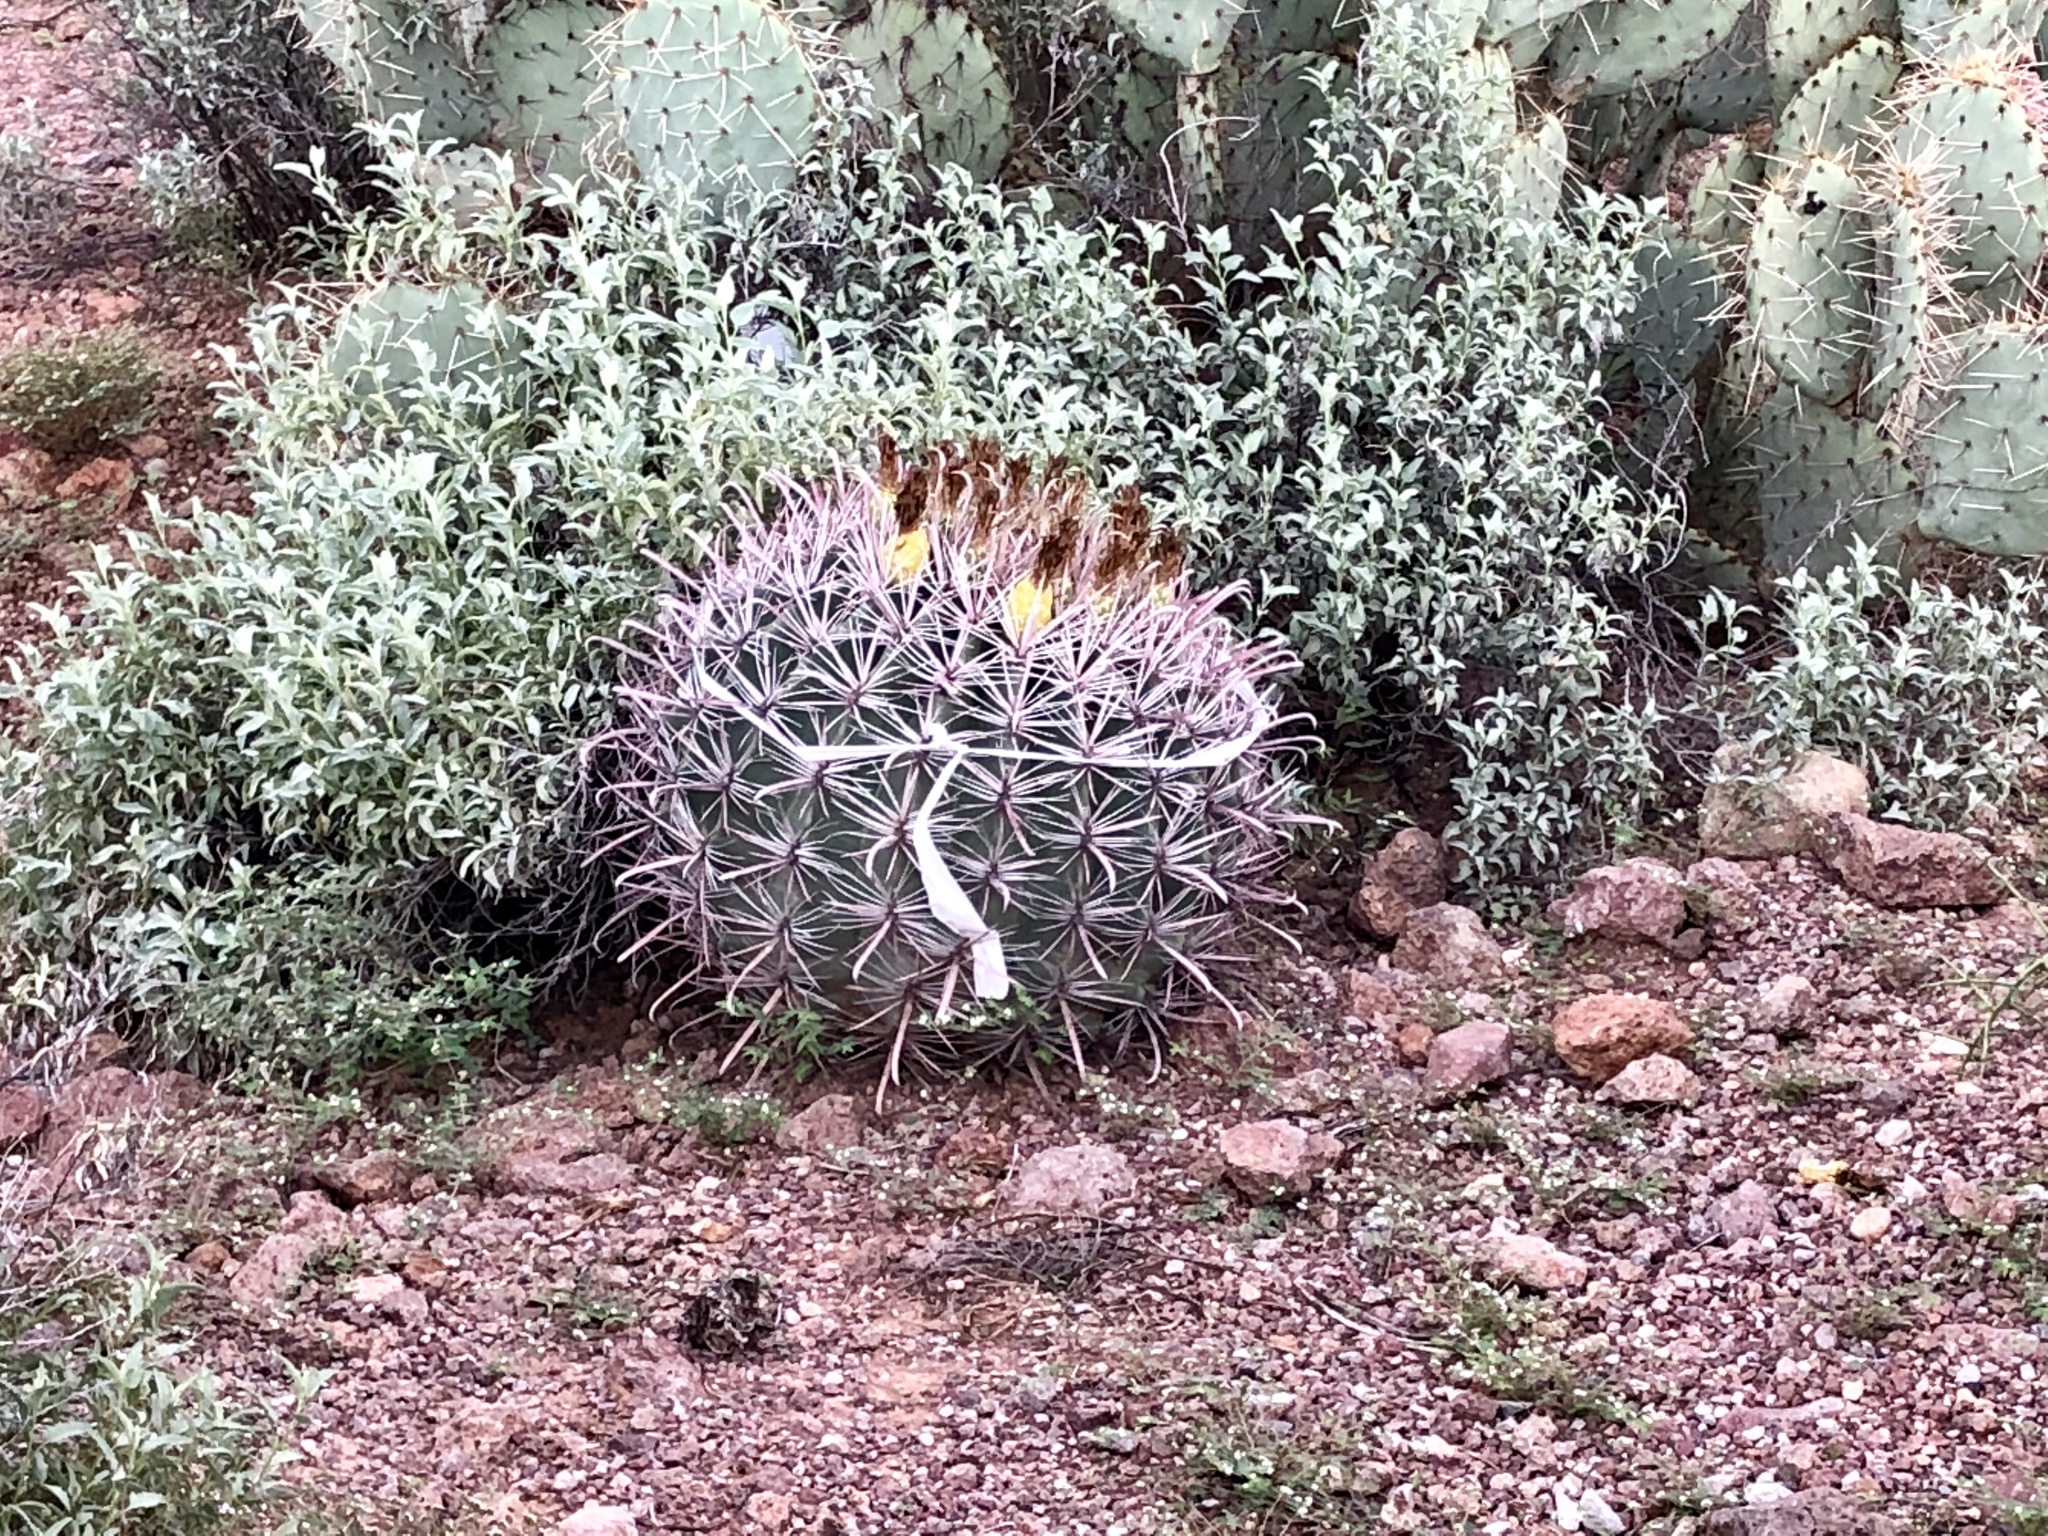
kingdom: Plantae
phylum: Tracheophyta
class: Magnoliopsida
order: Caryophyllales
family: Cactaceae
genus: Ferocactus
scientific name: Ferocactus wislizeni
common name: Candy barrel cactus
